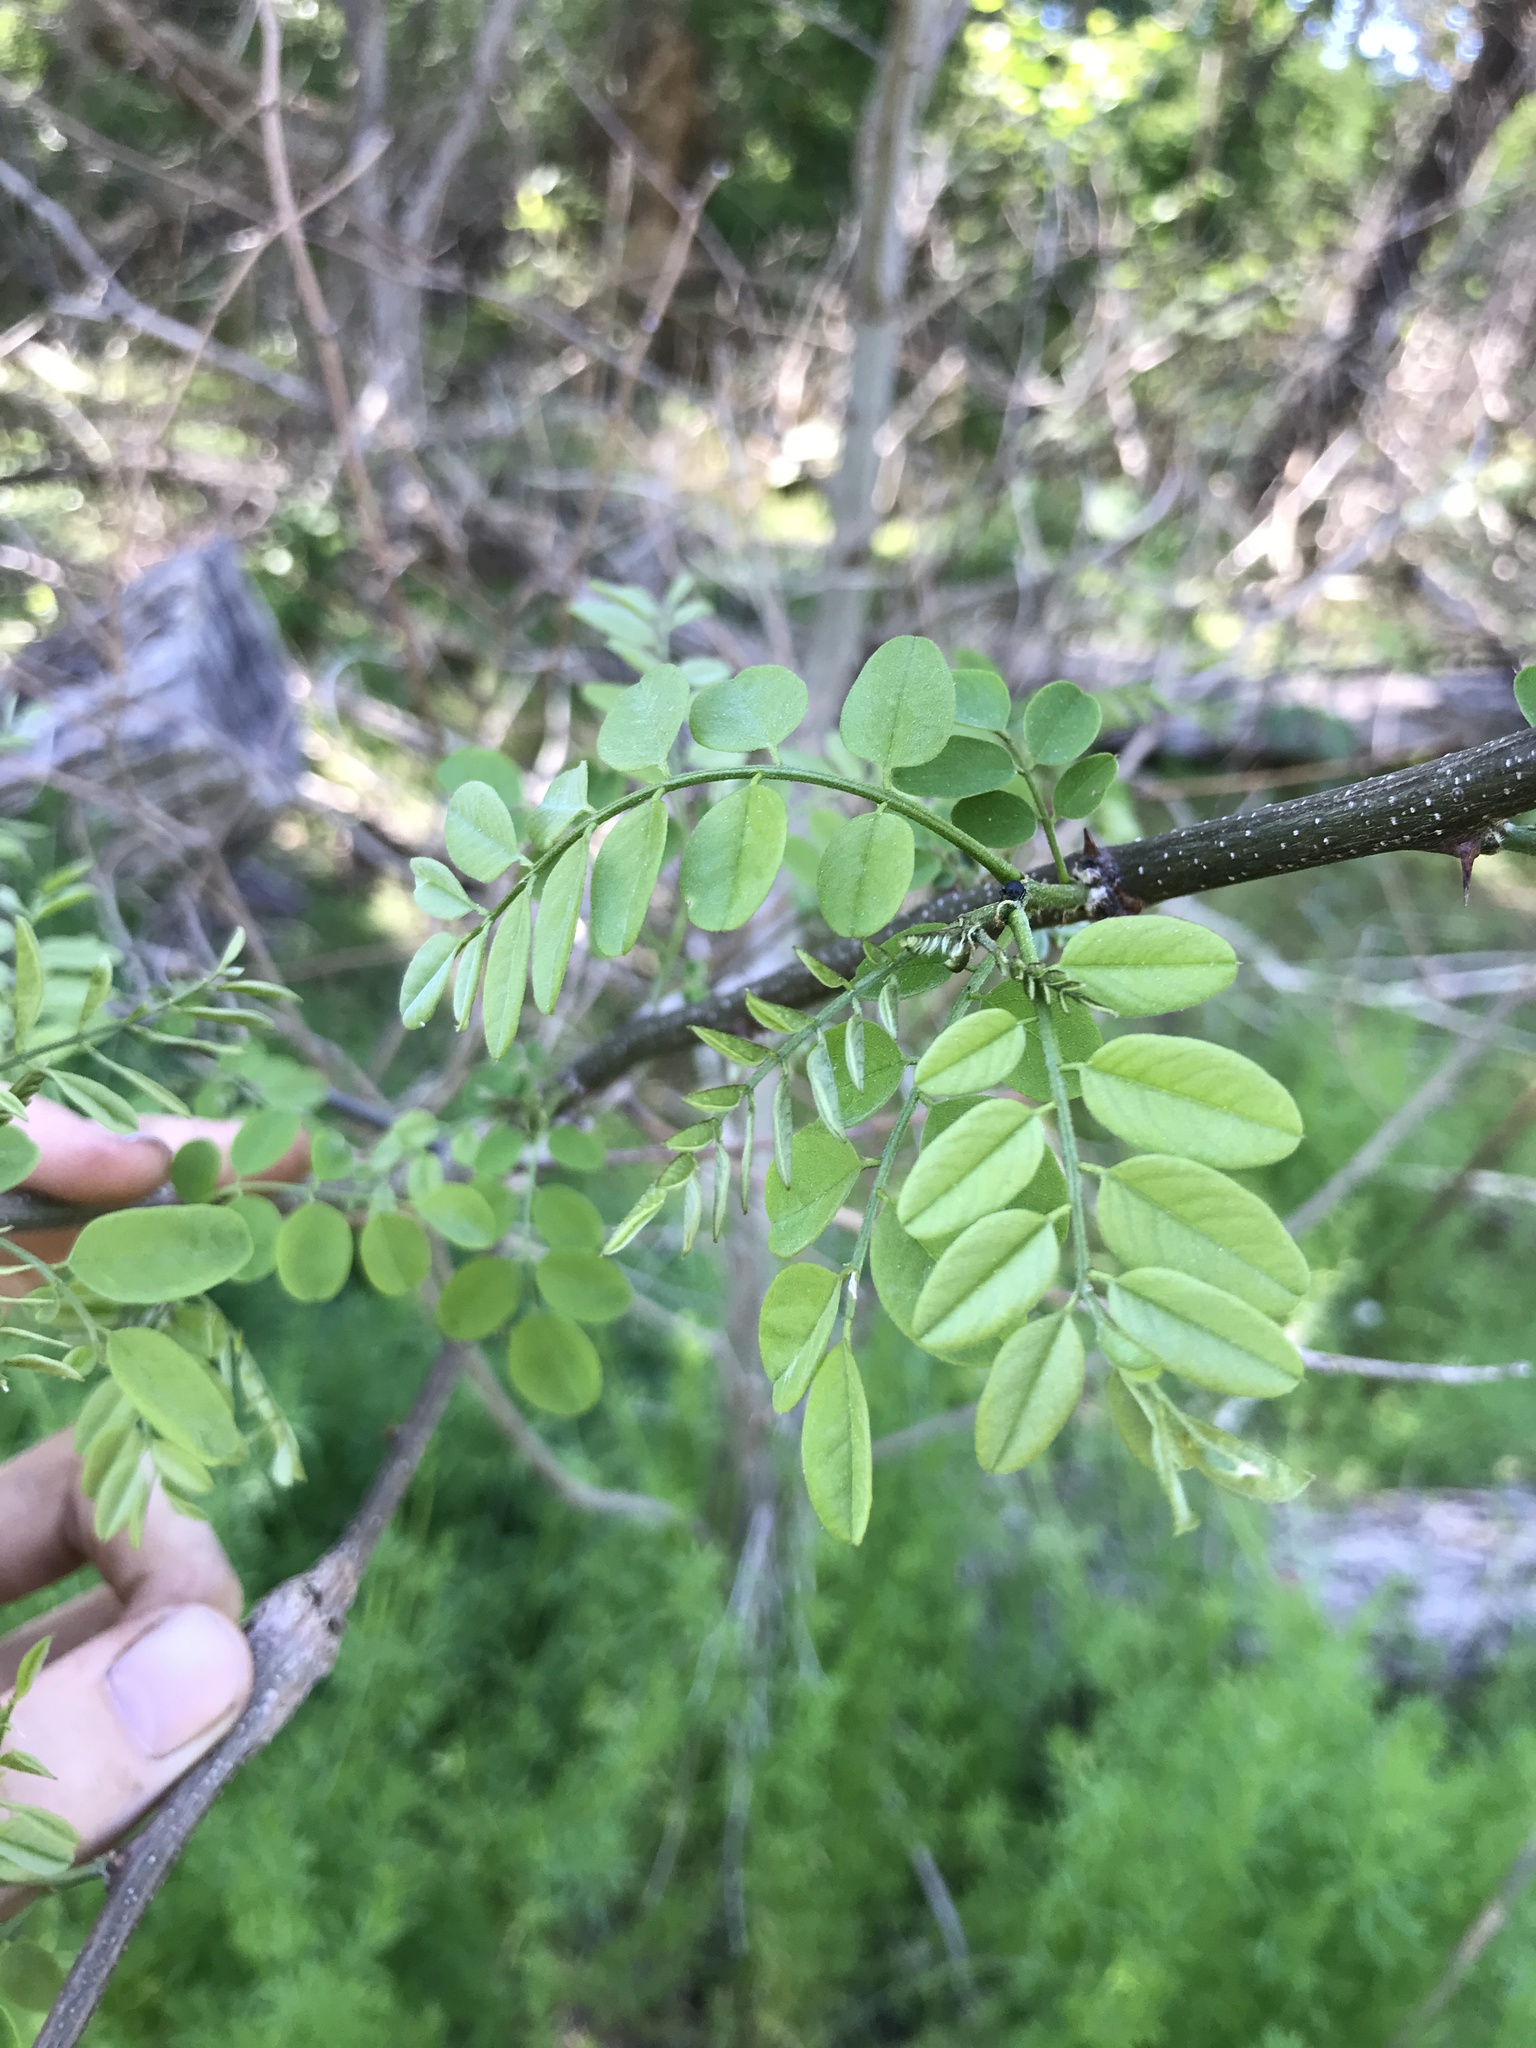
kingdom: Plantae
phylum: Tracheophyta
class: Magnoliopsida
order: Fabales
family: Fabaceae
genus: Robinia
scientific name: Robinia pseudoacacia
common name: Black locust
